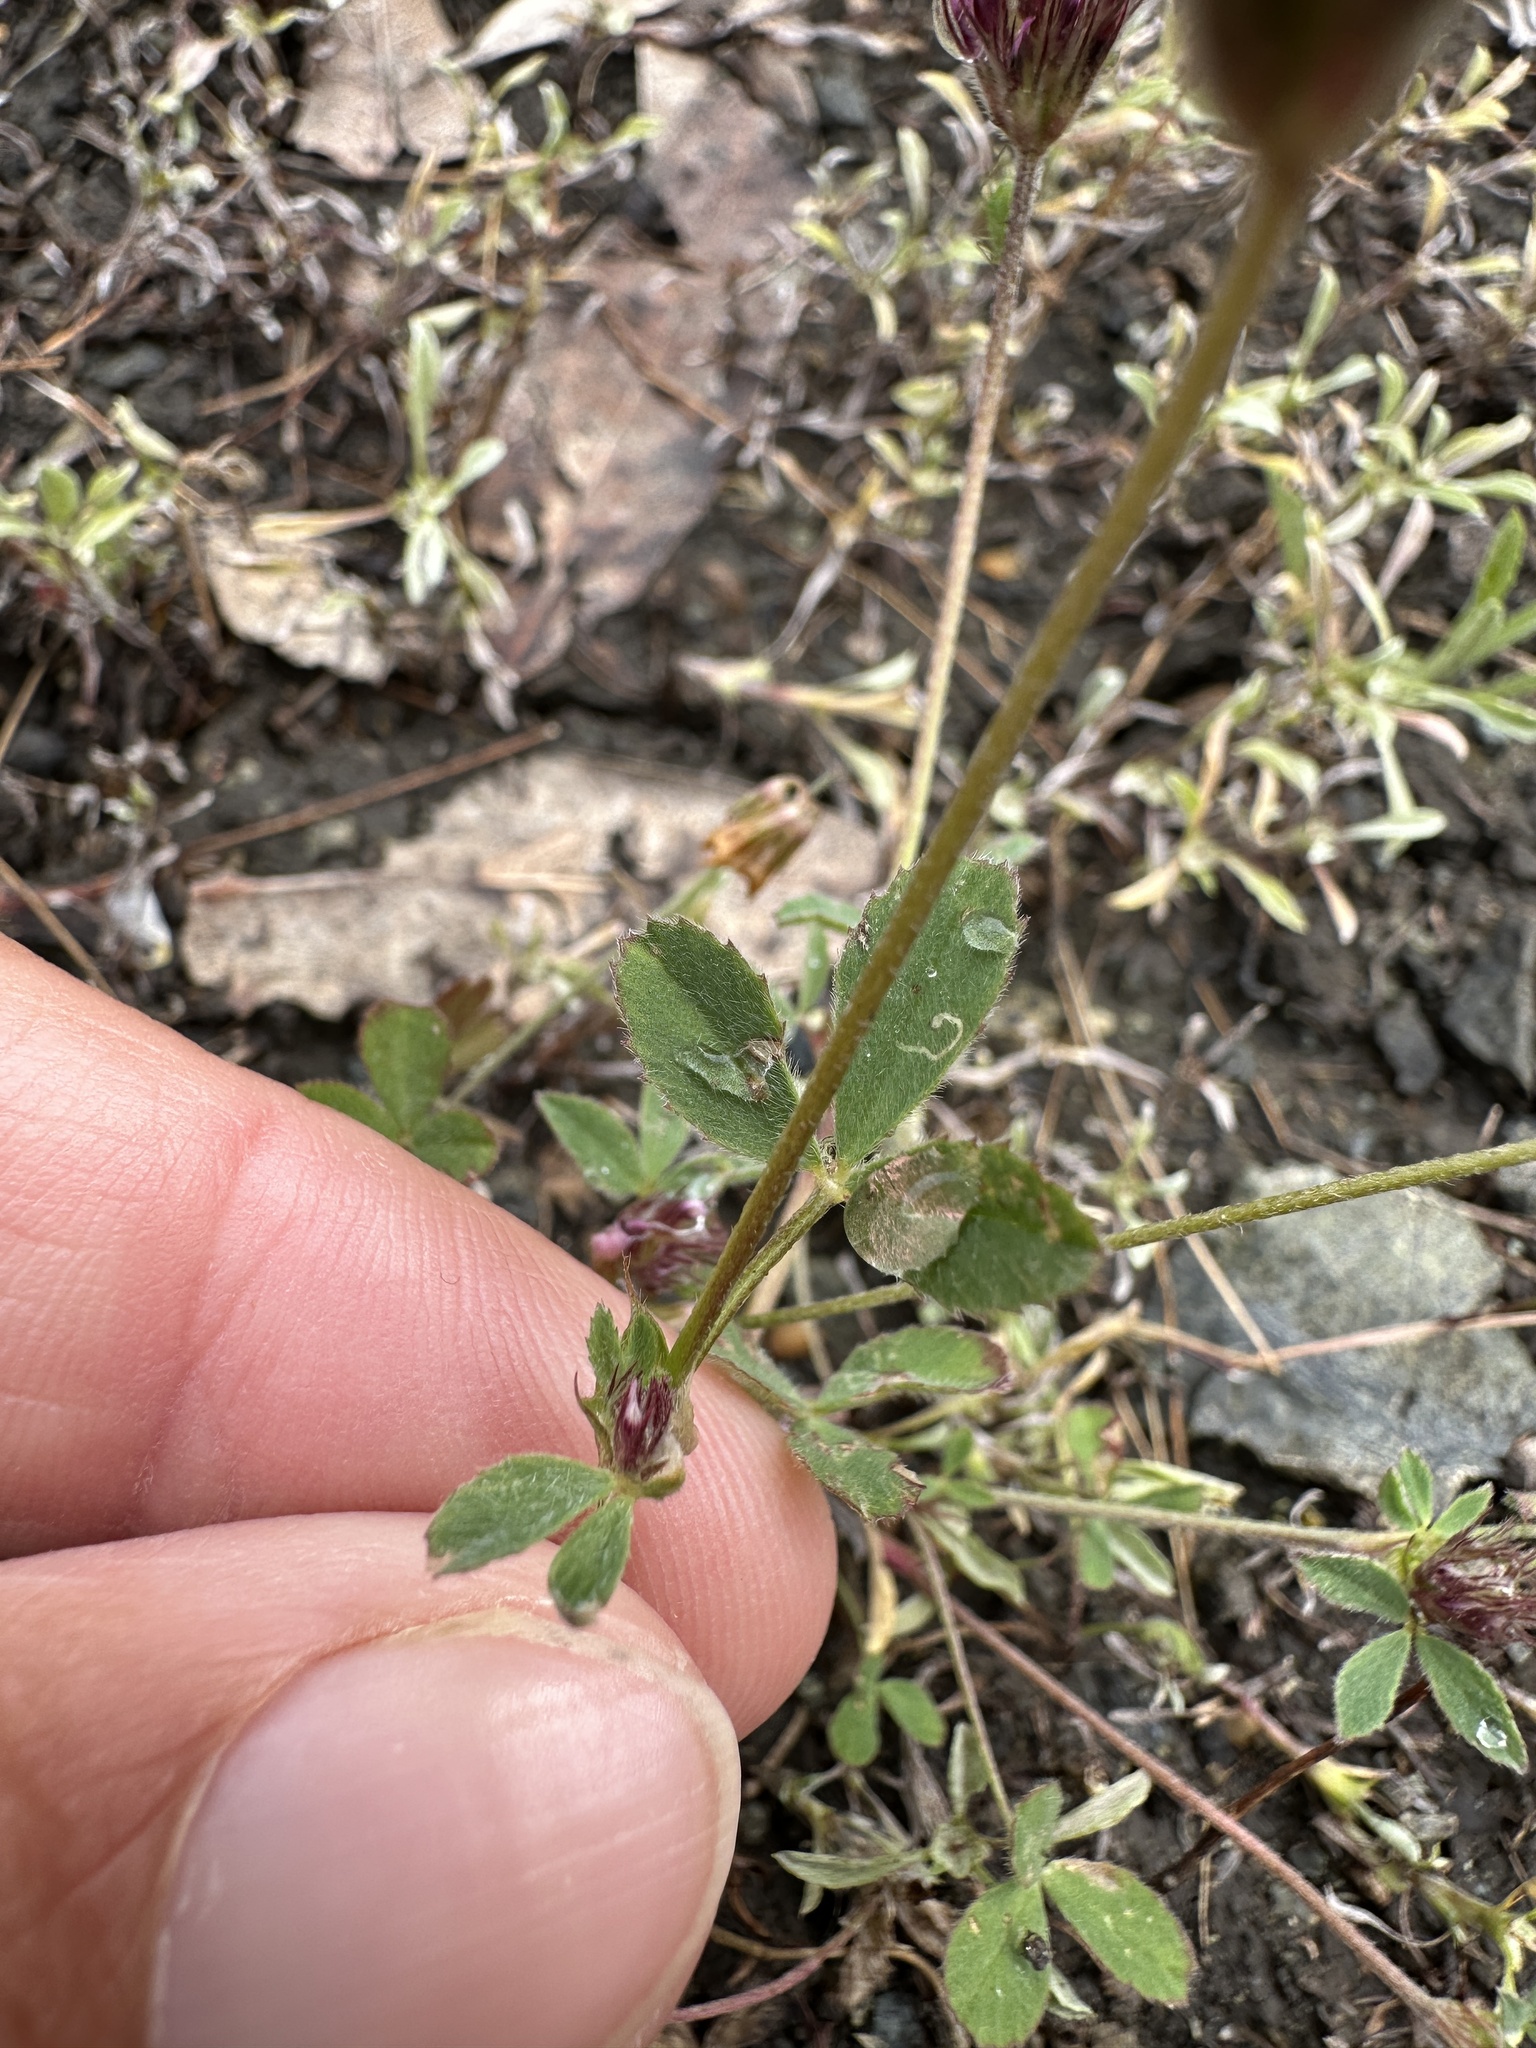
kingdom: Plantae
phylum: Tracheophyta
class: Magnoliopsida
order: Fabales
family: Fabaceae
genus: Trifolium
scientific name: Trifolium albopurpureum
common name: Rancheria clover
